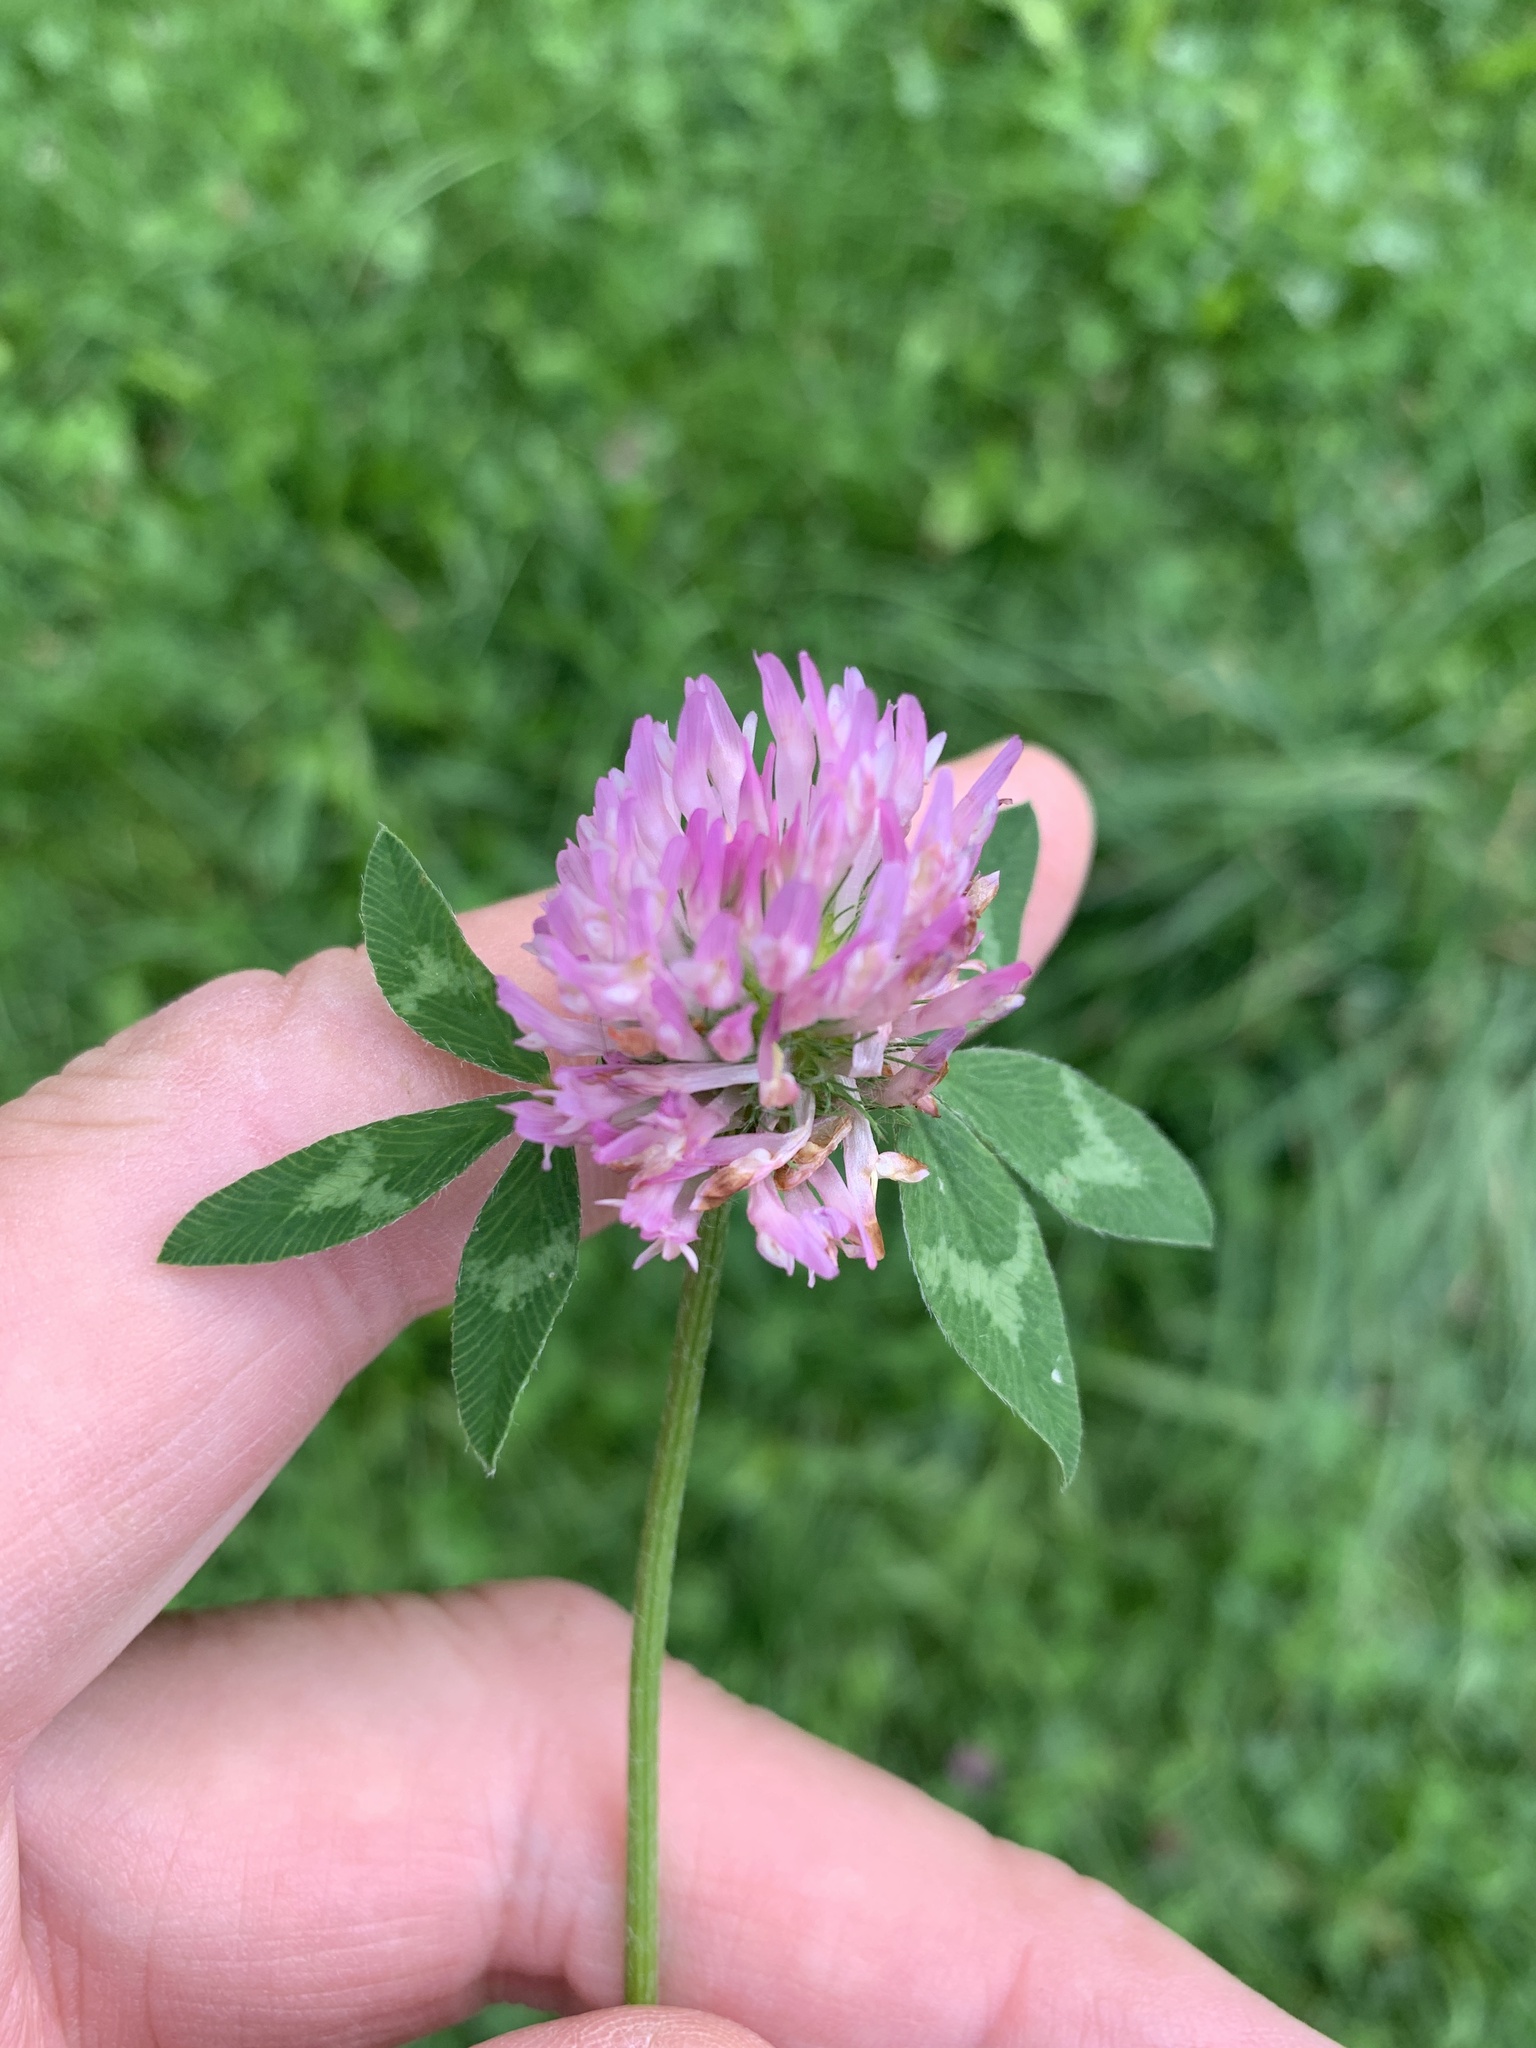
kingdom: Plantae
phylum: Tracheophyta
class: Magnoliopsida
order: Fabales
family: Fabaceae
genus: Trifolium
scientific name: Trifolium pratense
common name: Red clover
